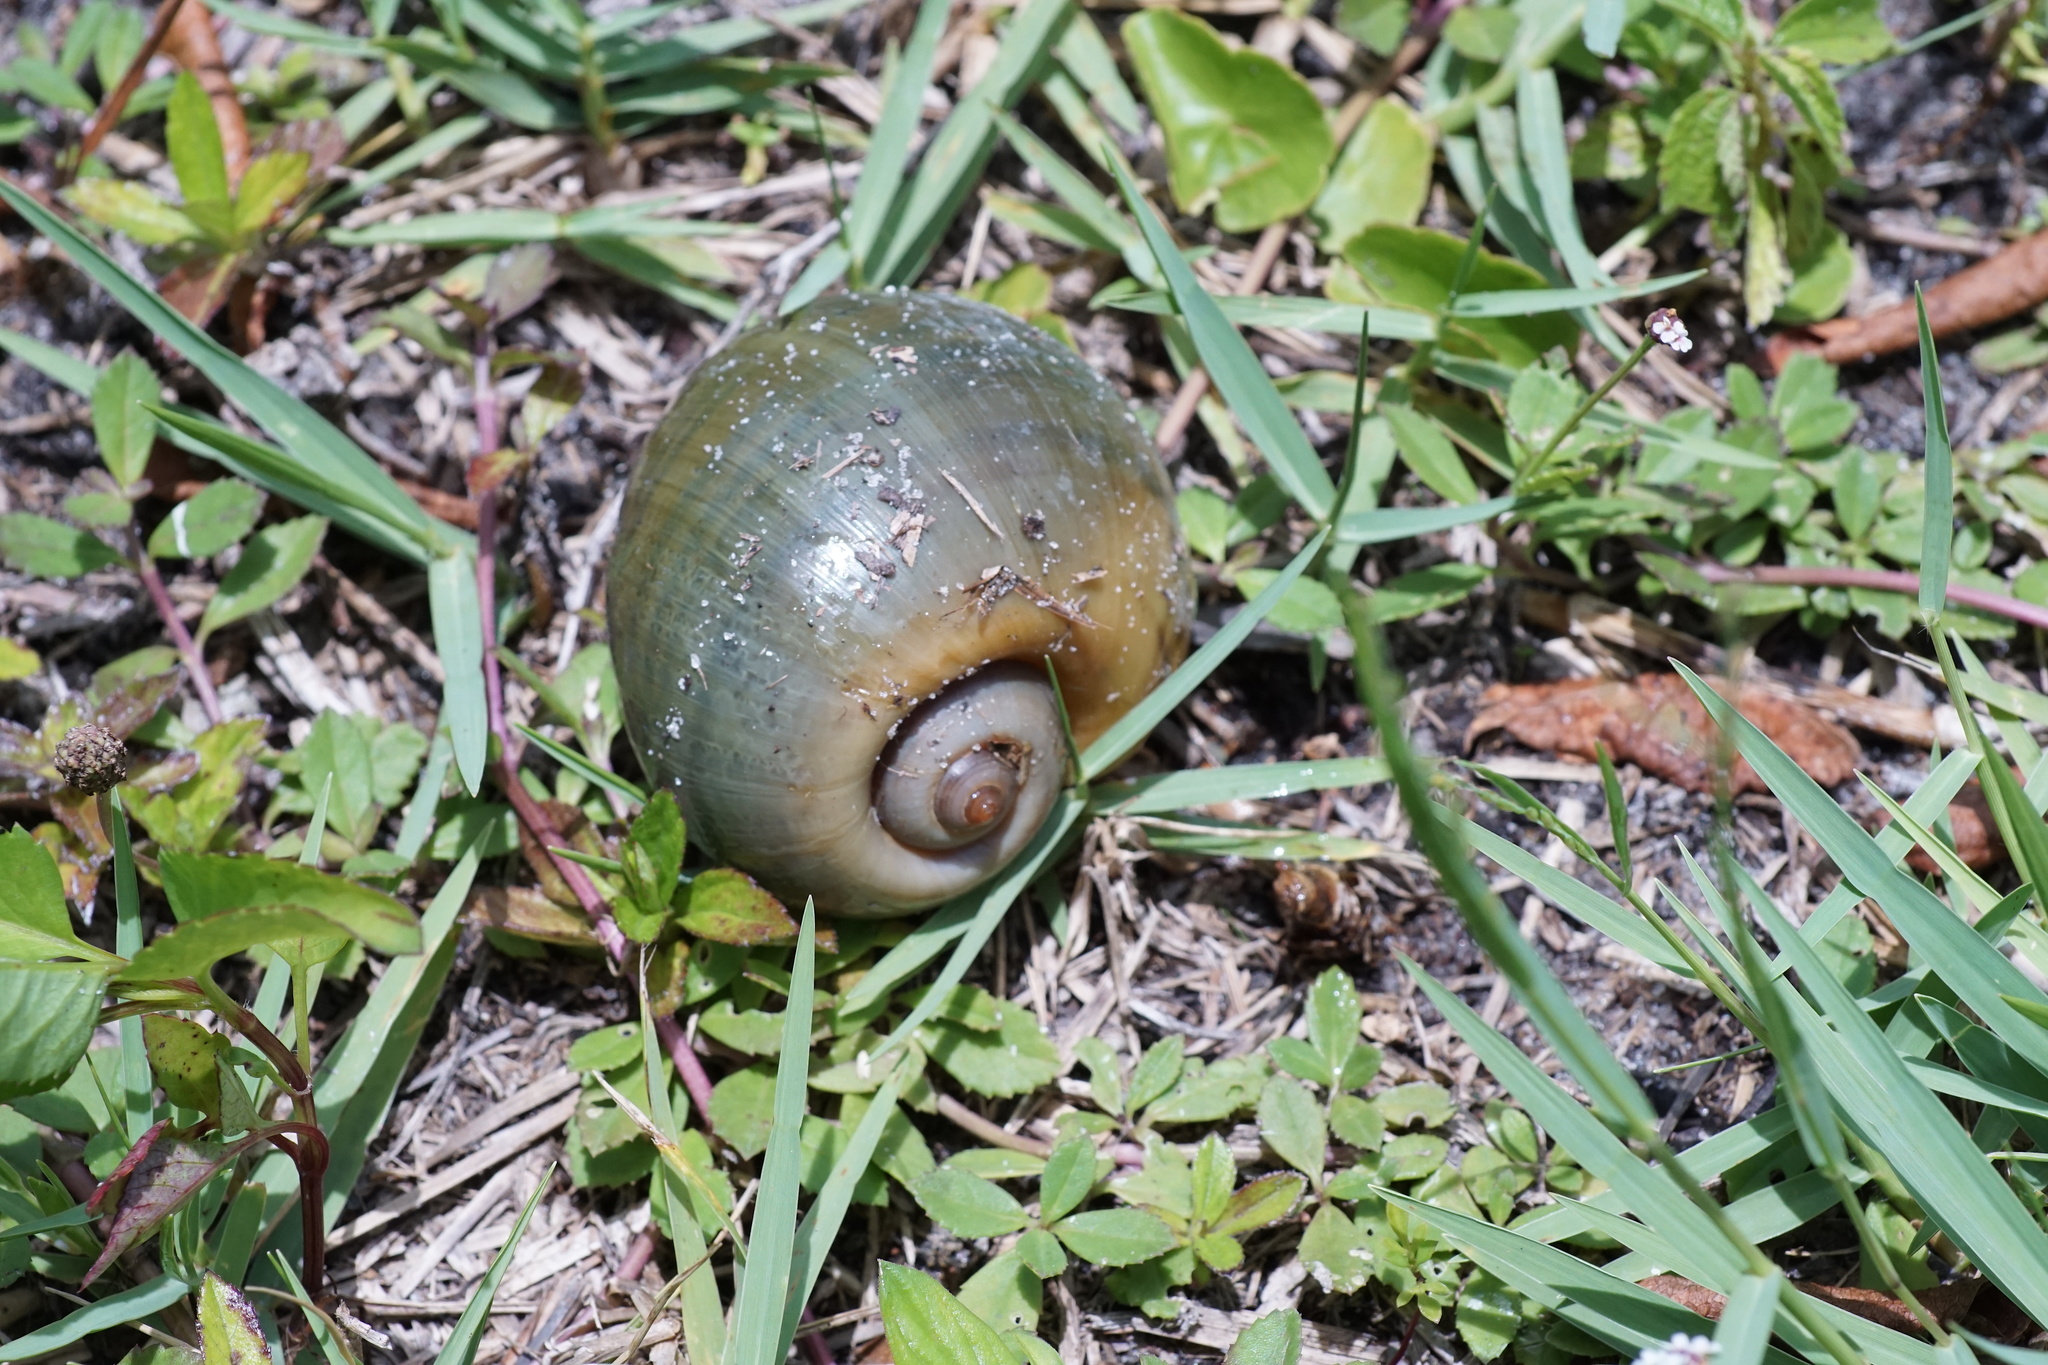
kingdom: Animalia
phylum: Mollusca
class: Gastropoda
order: Architaenioglossa
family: Ampullariidae
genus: Pomacea
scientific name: Pomacea maculata
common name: Giant applesnail
